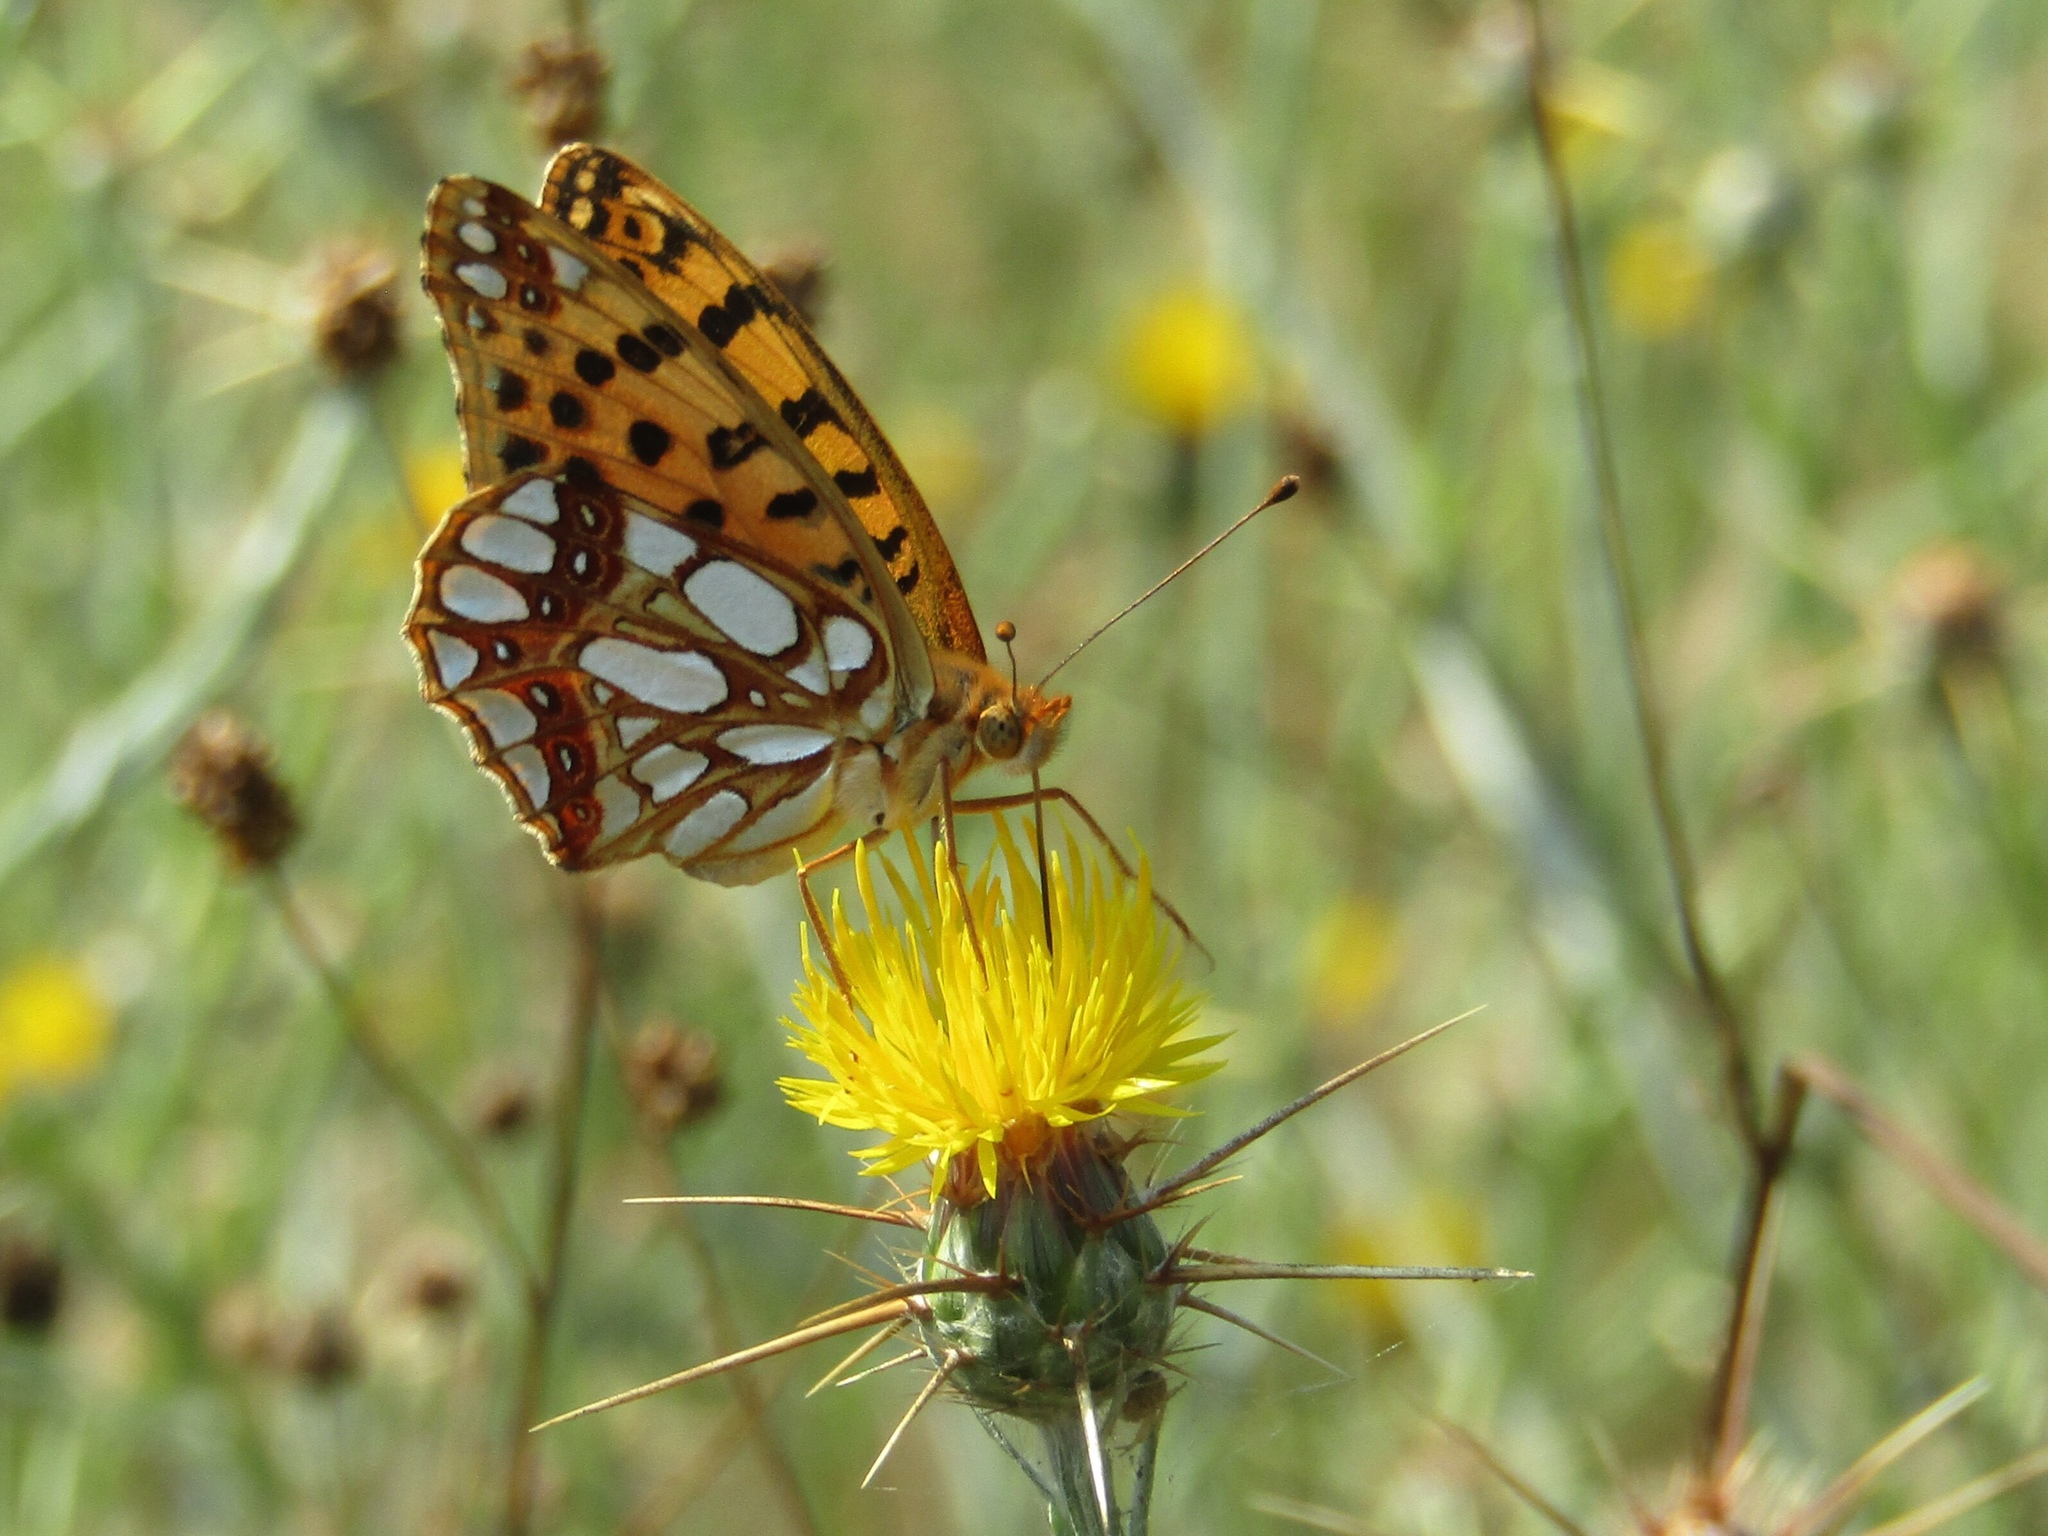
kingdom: Animalia
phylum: Arthropoda
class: Insecta
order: Lepidoptera
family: Nymphalidae
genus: Issoria
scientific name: Issoria lathonia
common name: Queen of spain fritillary
